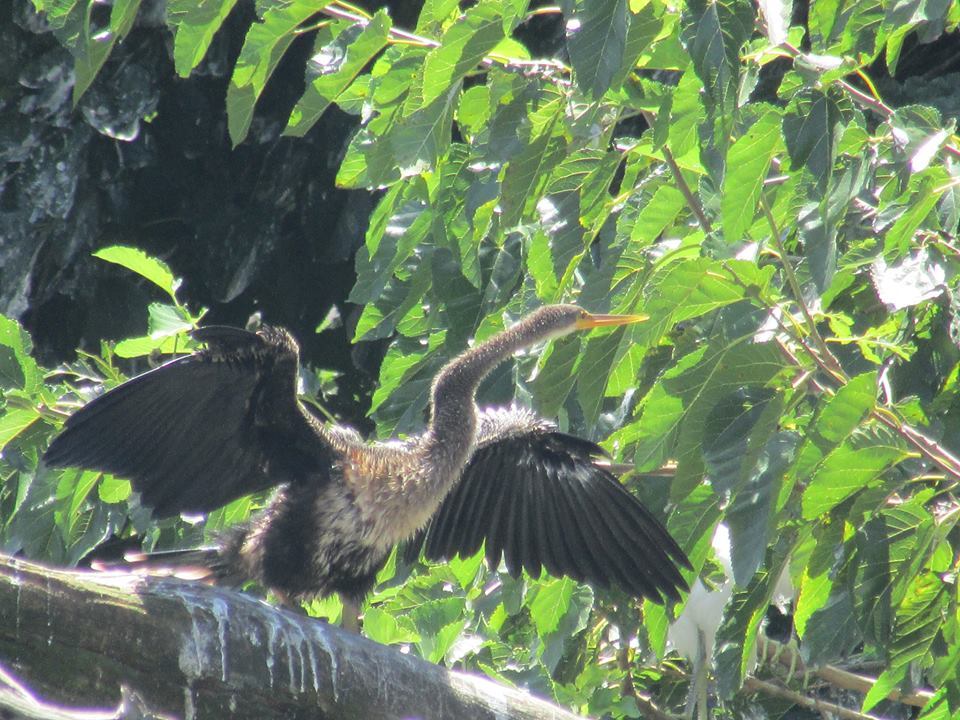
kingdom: Animalia
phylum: Chordata
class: Aves
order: Suliformes
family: Anhingidae
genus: Anhinga
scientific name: Anhinga anhinga
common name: Anhinga
